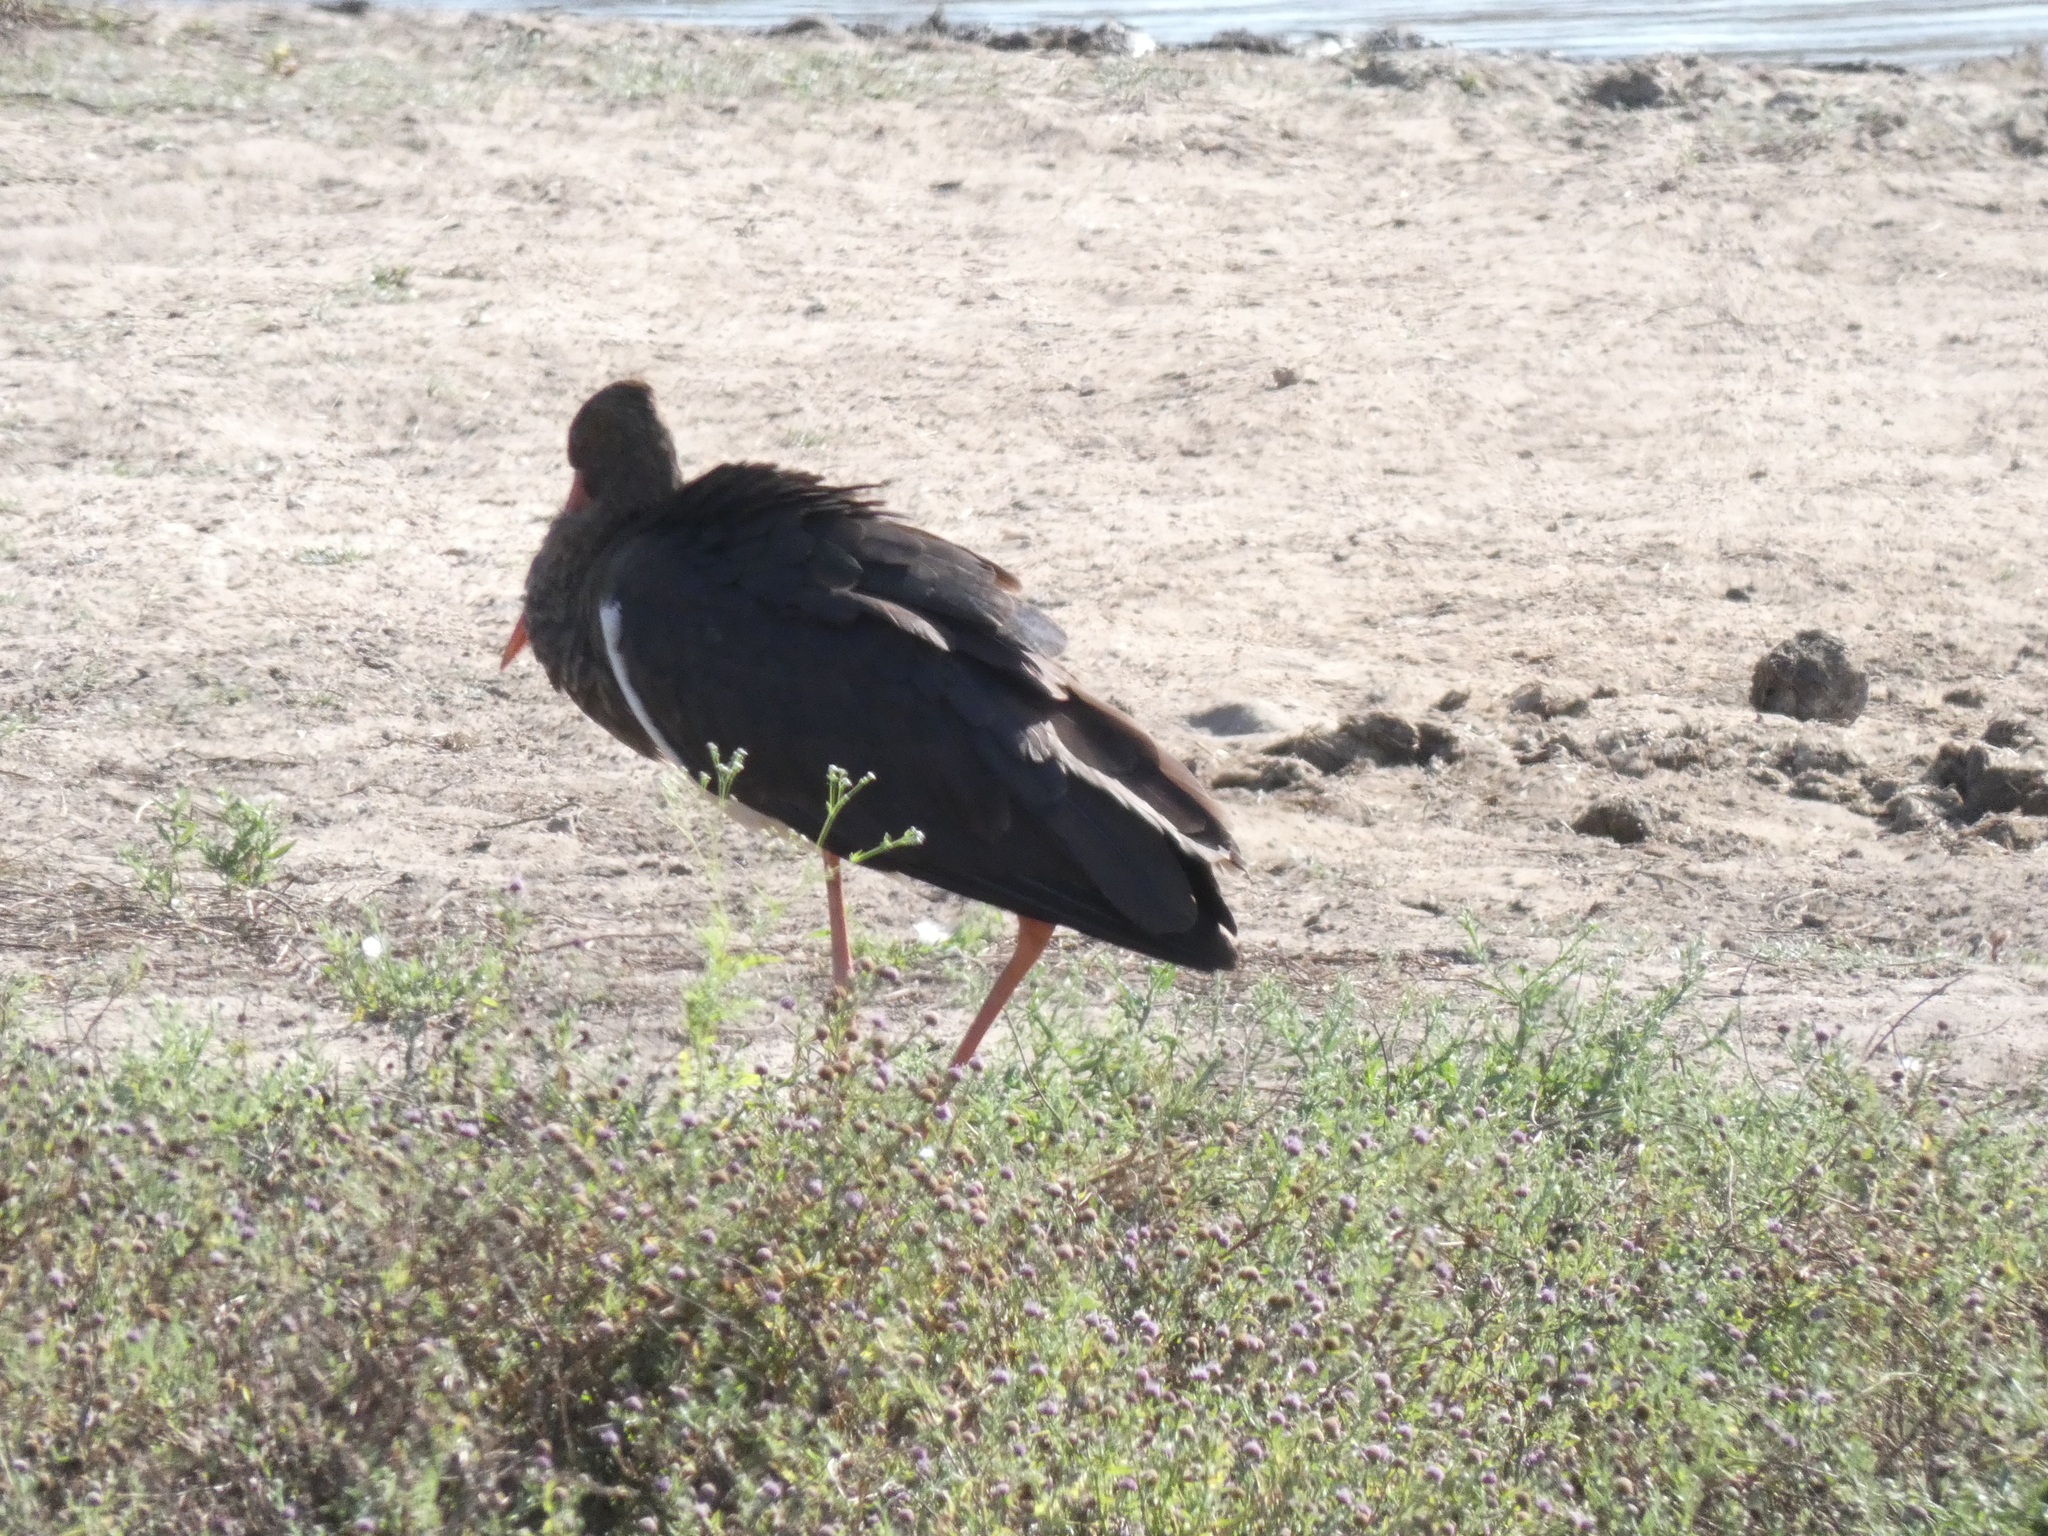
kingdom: Animalia
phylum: Chordata
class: Aves
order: Ciconiiformes
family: Ciconiidae
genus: Ciconia
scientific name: Ciconia nigra
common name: Black stork
